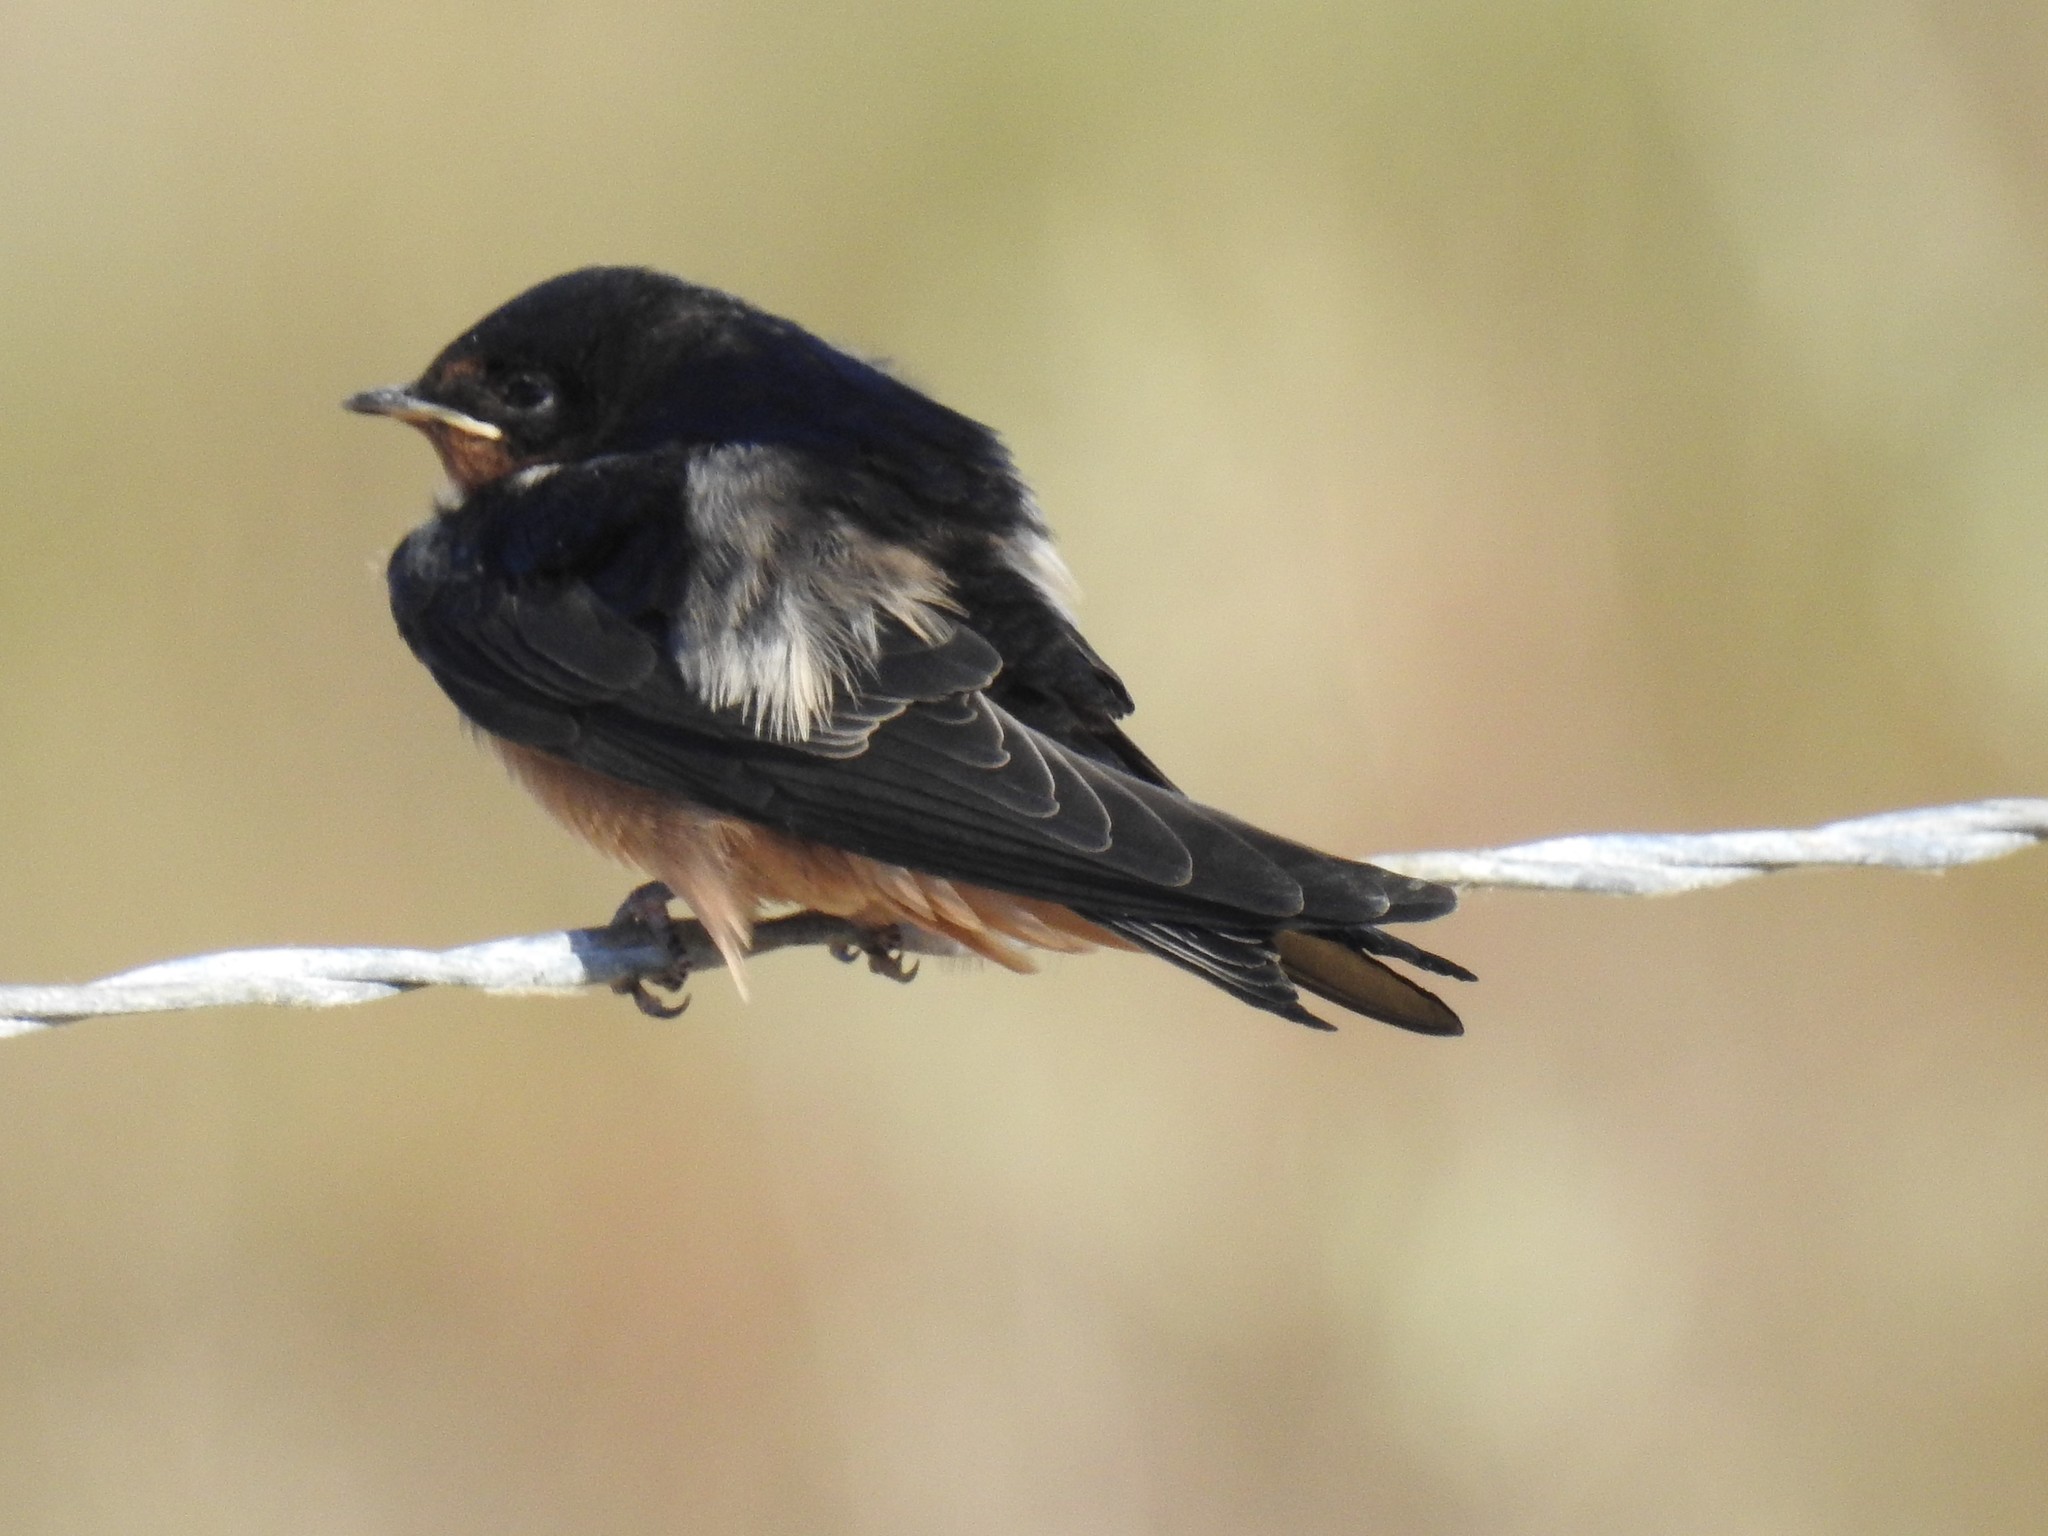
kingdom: Animalia
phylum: Chordata
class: Aves
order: Passeriformes
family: Hirundinidae
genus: Hirundo
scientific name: Hirundo rustica
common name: Barn swallow
